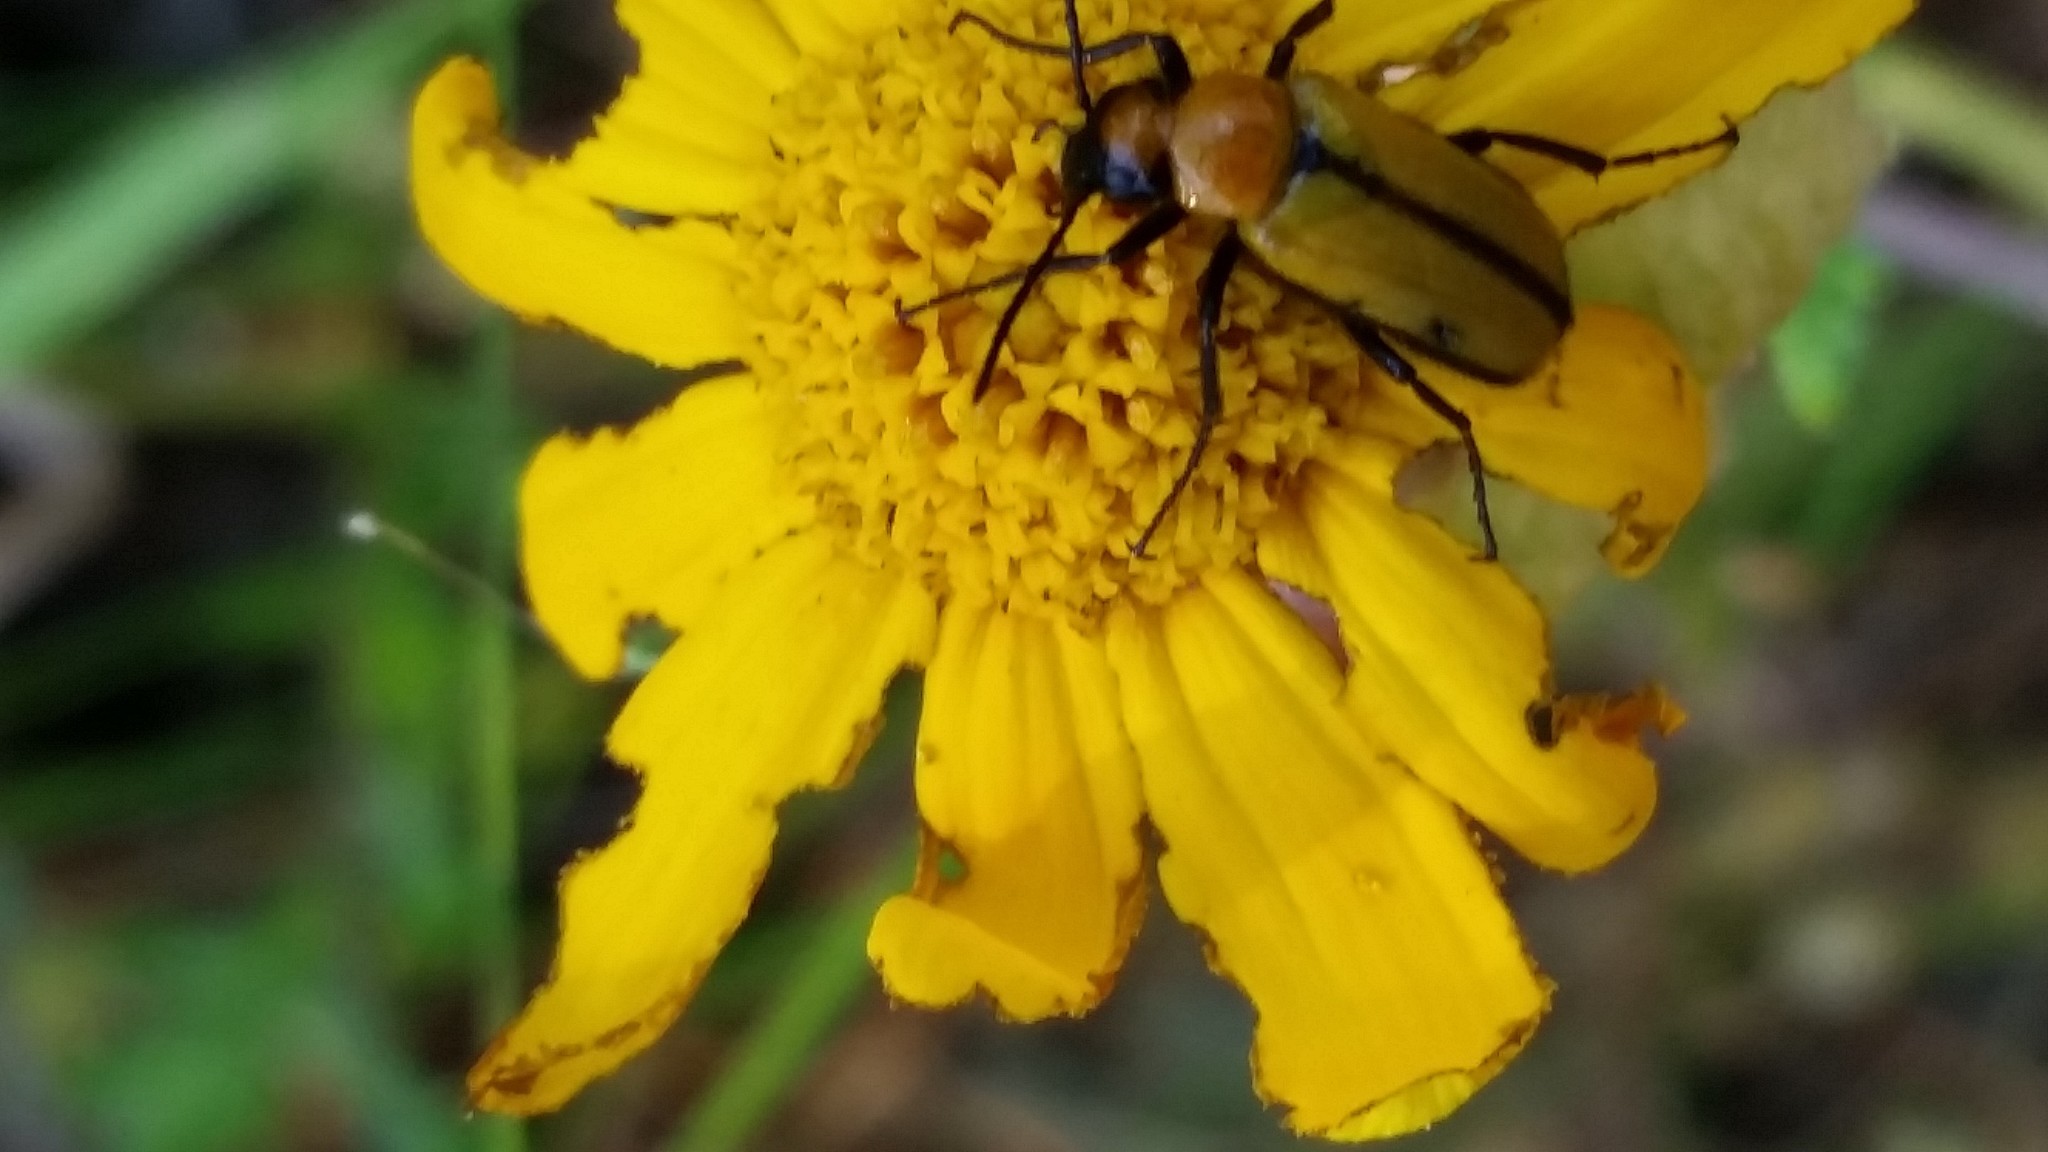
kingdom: Animalia
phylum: Arthropoda
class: Insecta
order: Coleoptera
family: Meloidae
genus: Nemognatha
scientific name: Nemognatha scutellaris
